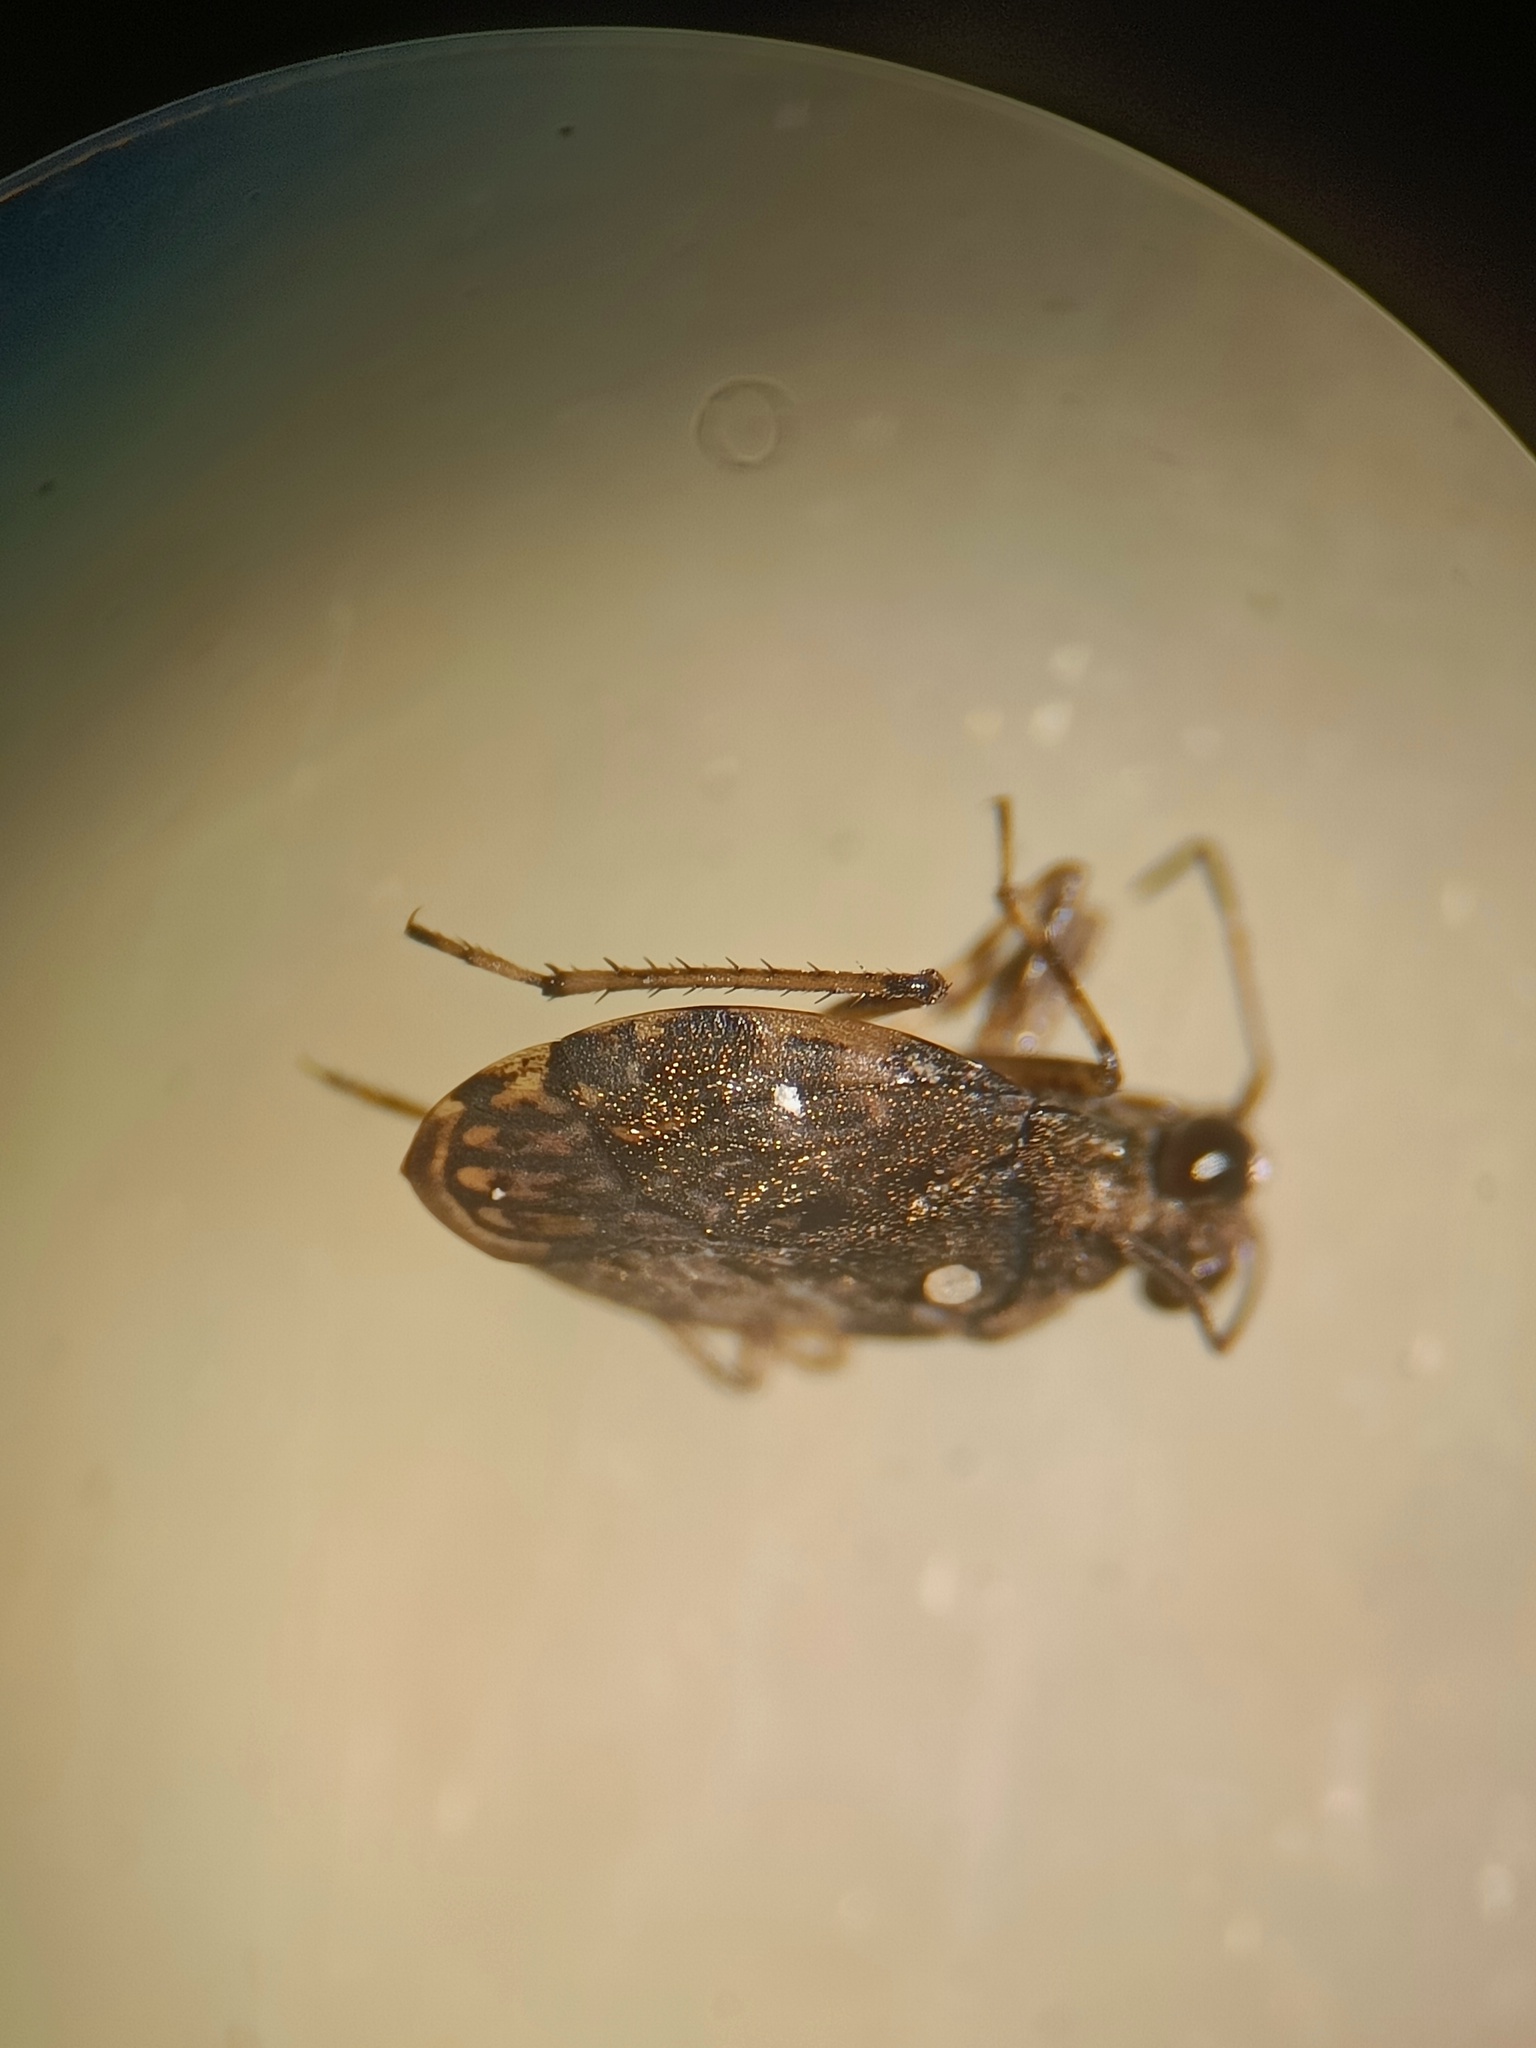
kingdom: Animalia
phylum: Arthropoda
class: Insecta
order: Hemiptera
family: Saldidae
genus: Saldula
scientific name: Saldula saltatoria
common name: Common shorebug
